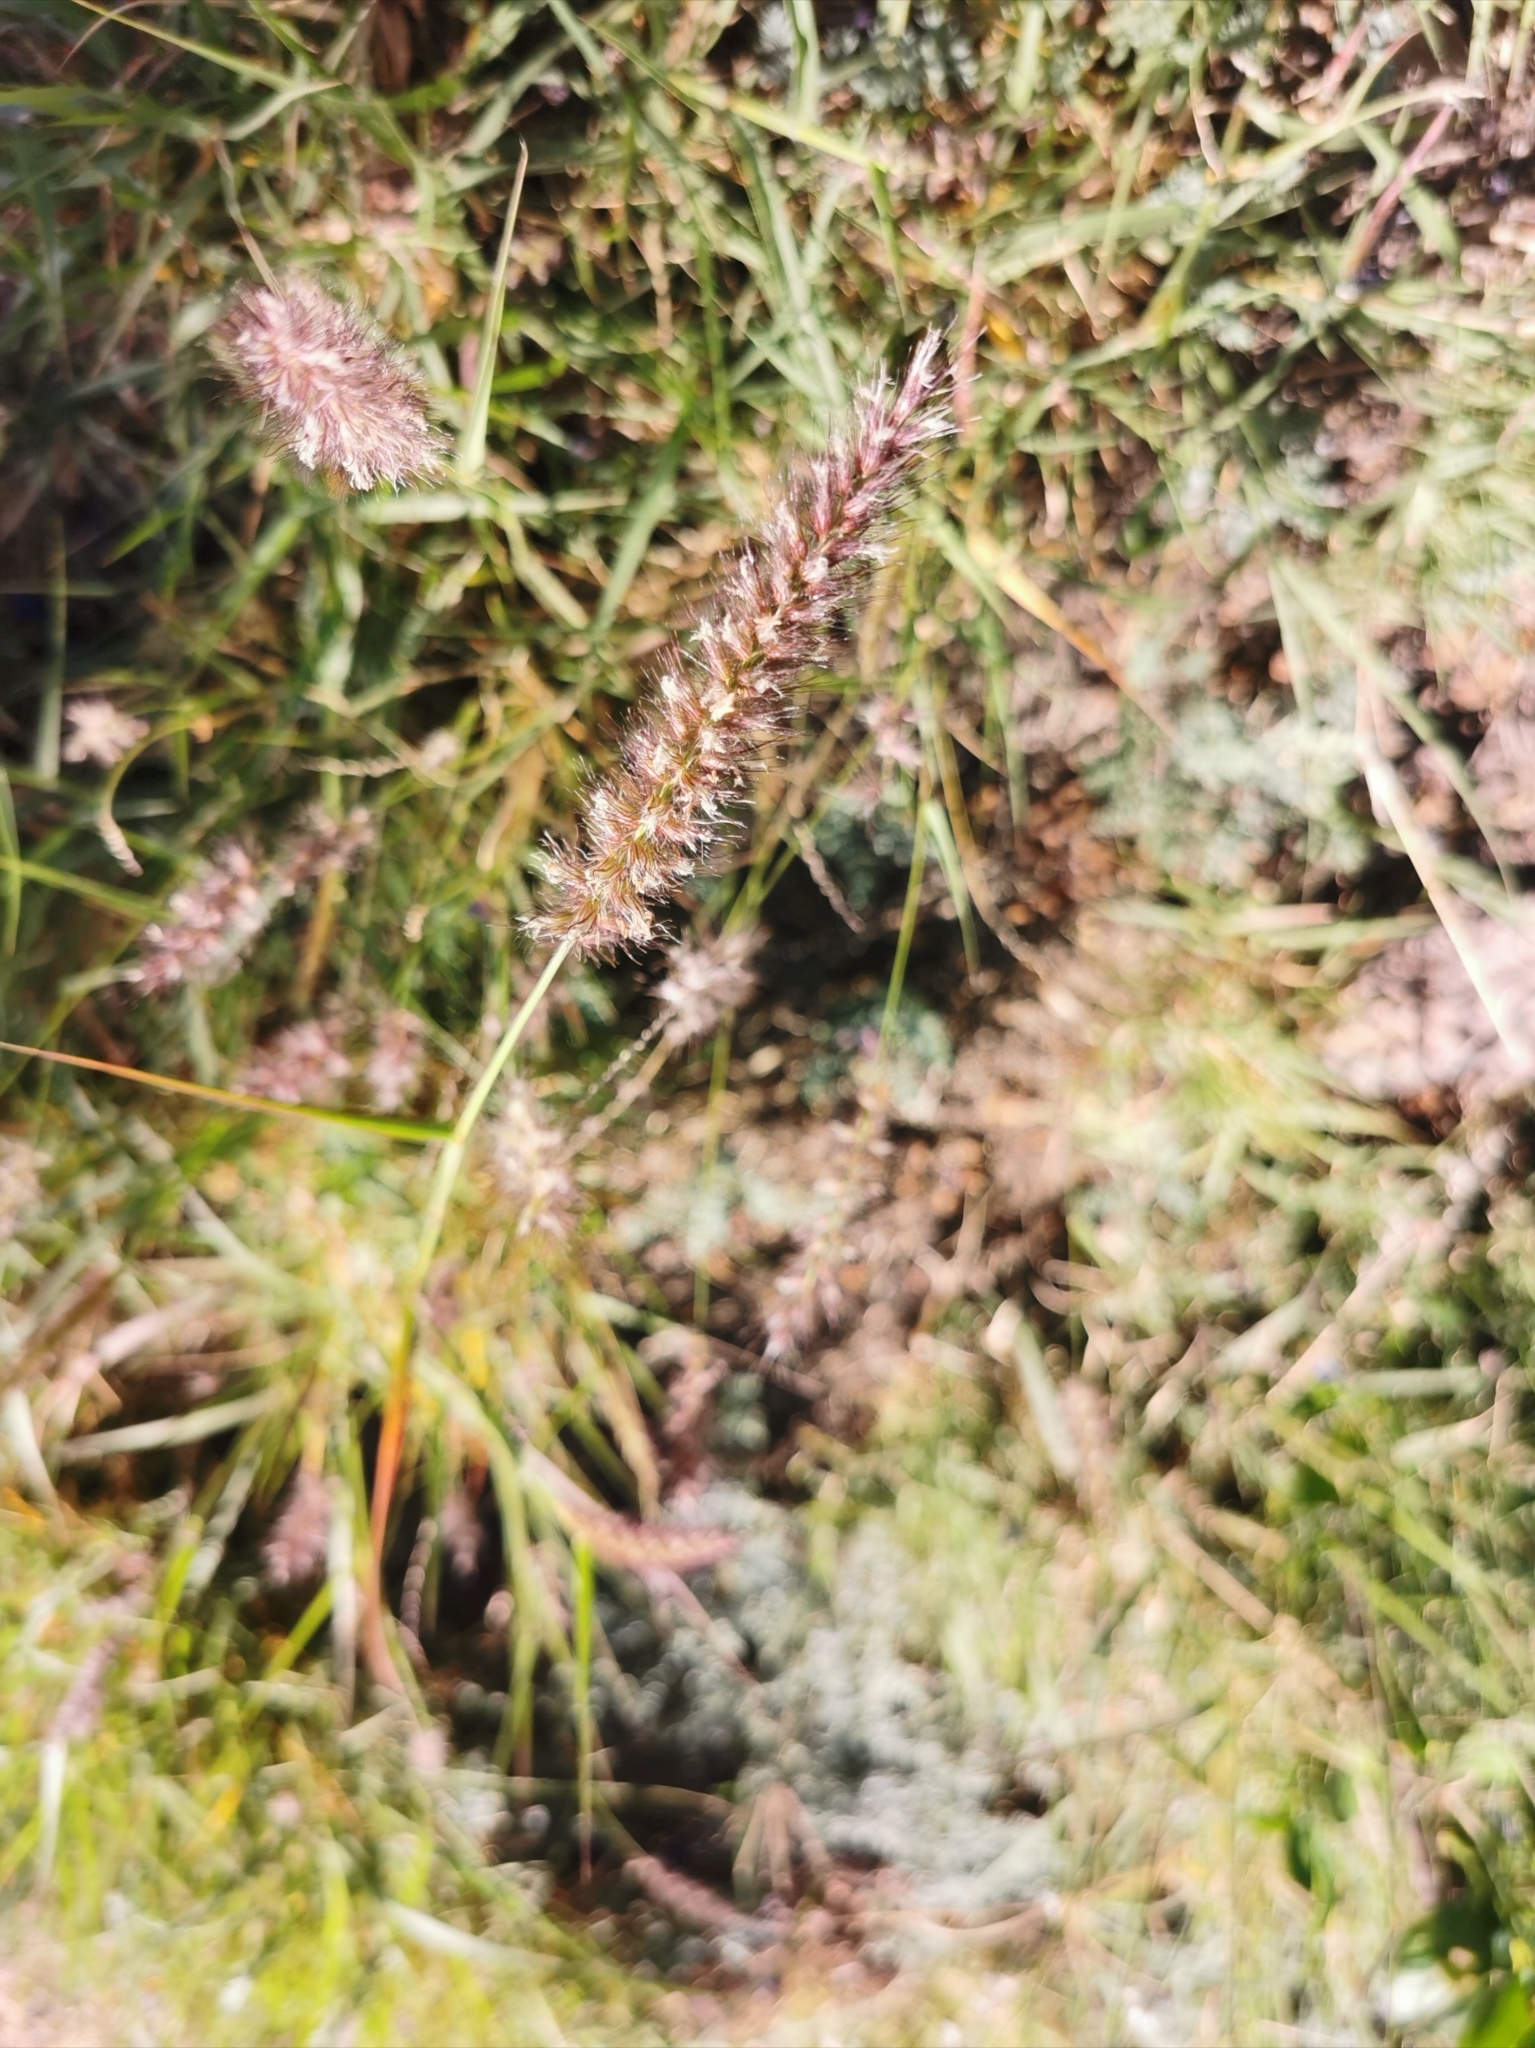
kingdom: Plantae
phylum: Tracheophyta
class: Liliopsida
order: Poales
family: Poaceae
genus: Cenchrus
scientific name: Cenchrus ciliaris
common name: Buffelgrass
